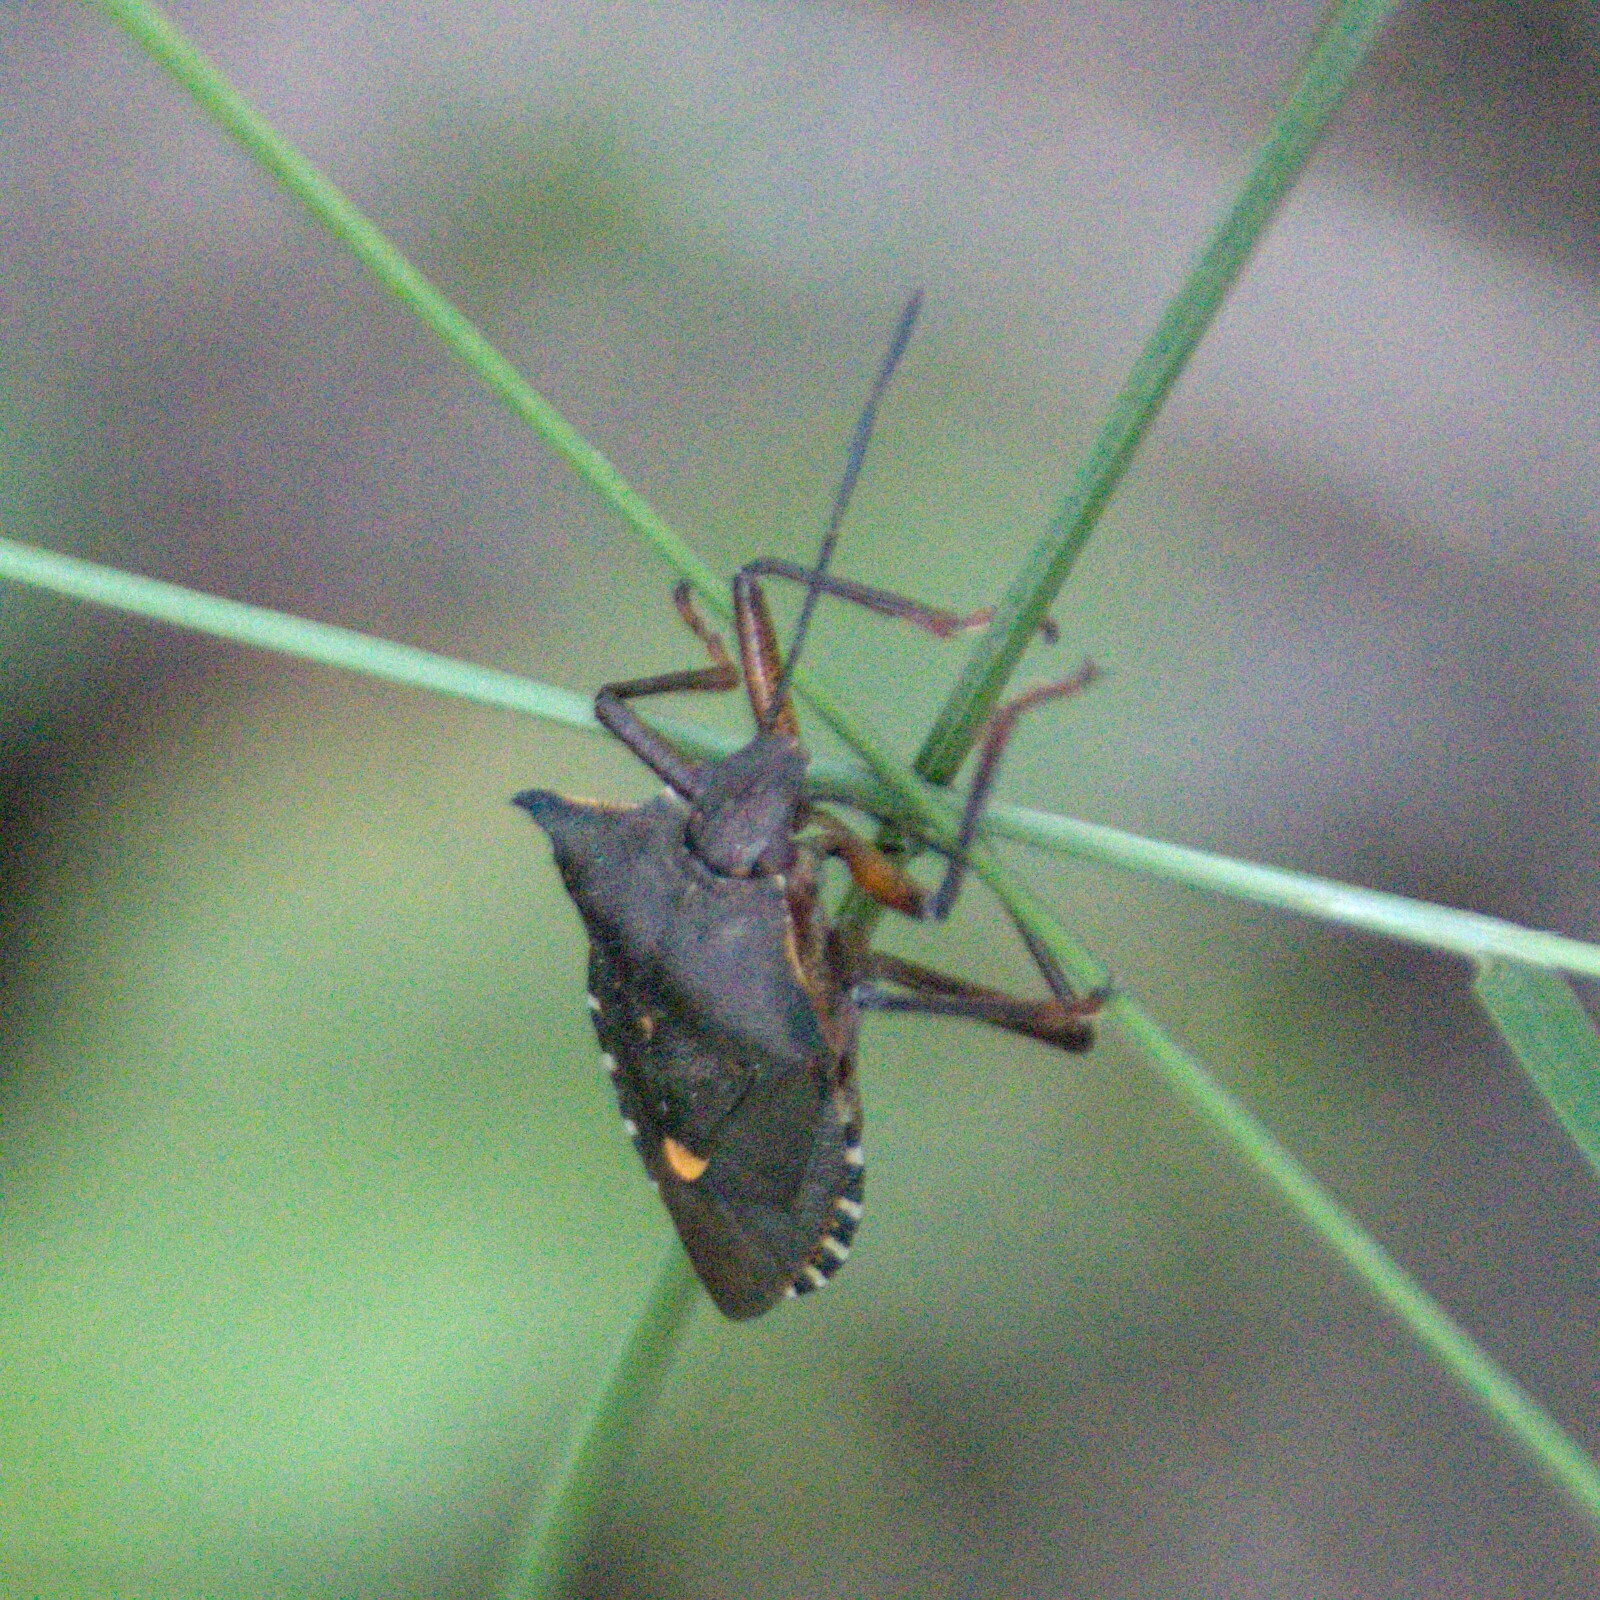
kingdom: Animalia
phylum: Arthropoda
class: Insecta
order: Hemiptera
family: Pentatomidae
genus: Pentatoma
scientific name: Pentatoma rufipes
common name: Forest bug
